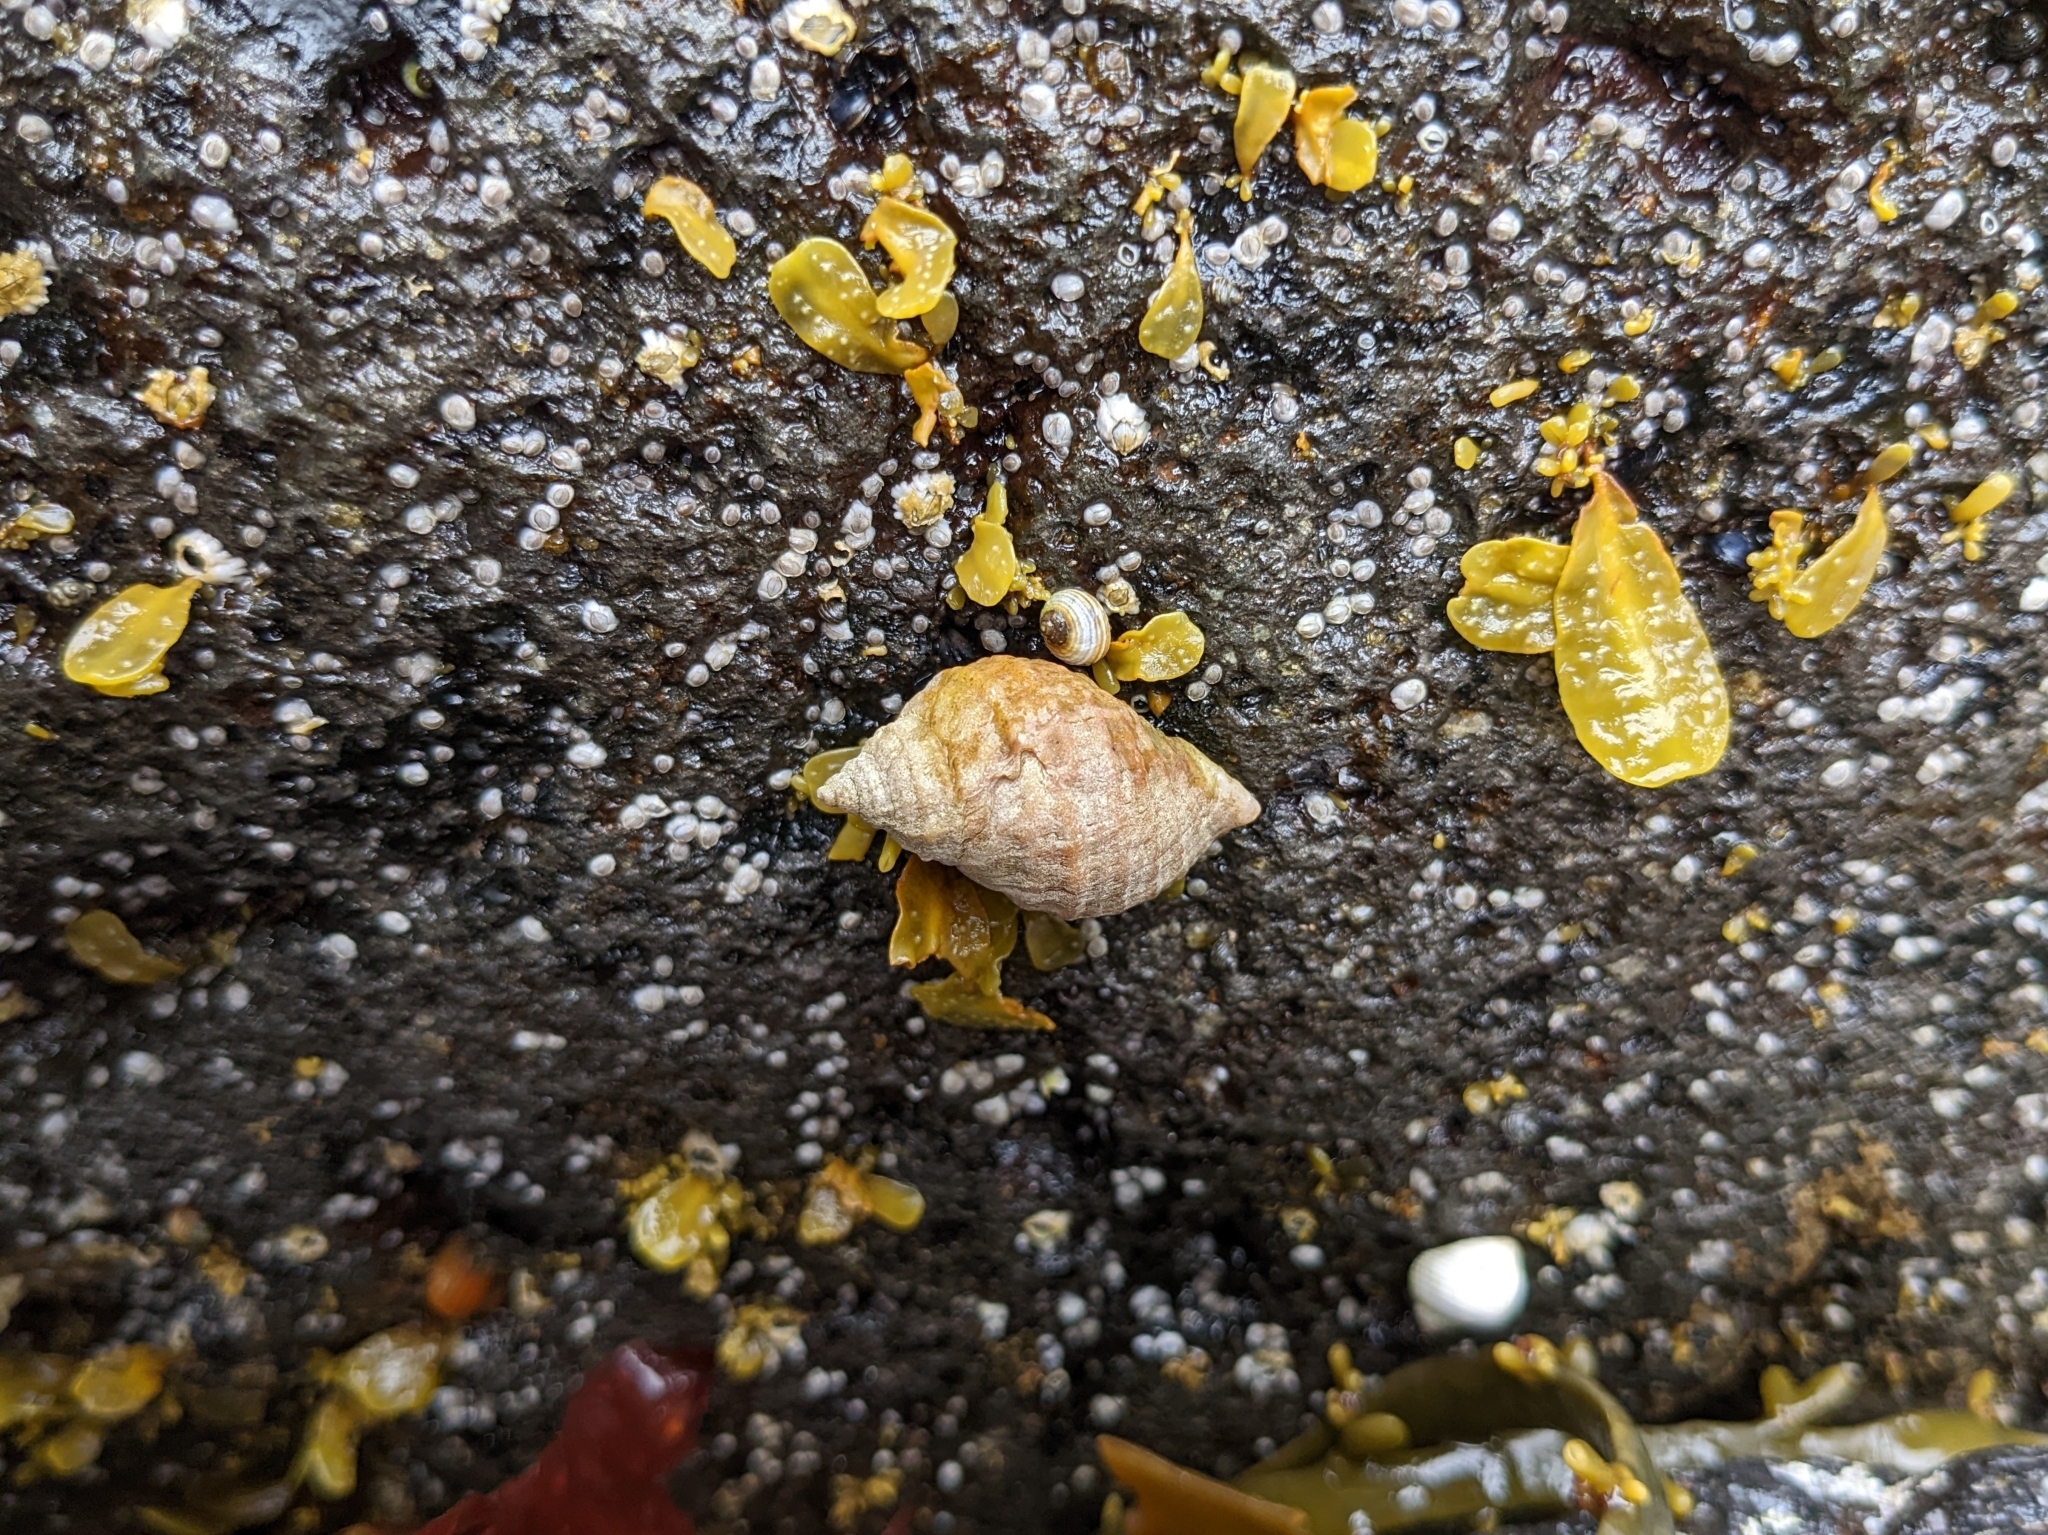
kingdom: Animalia
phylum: Mollusca
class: Gastropoda
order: Neogastropoda
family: Muricidae
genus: Nucella
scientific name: Nucella lapillus
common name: Dog whelk
